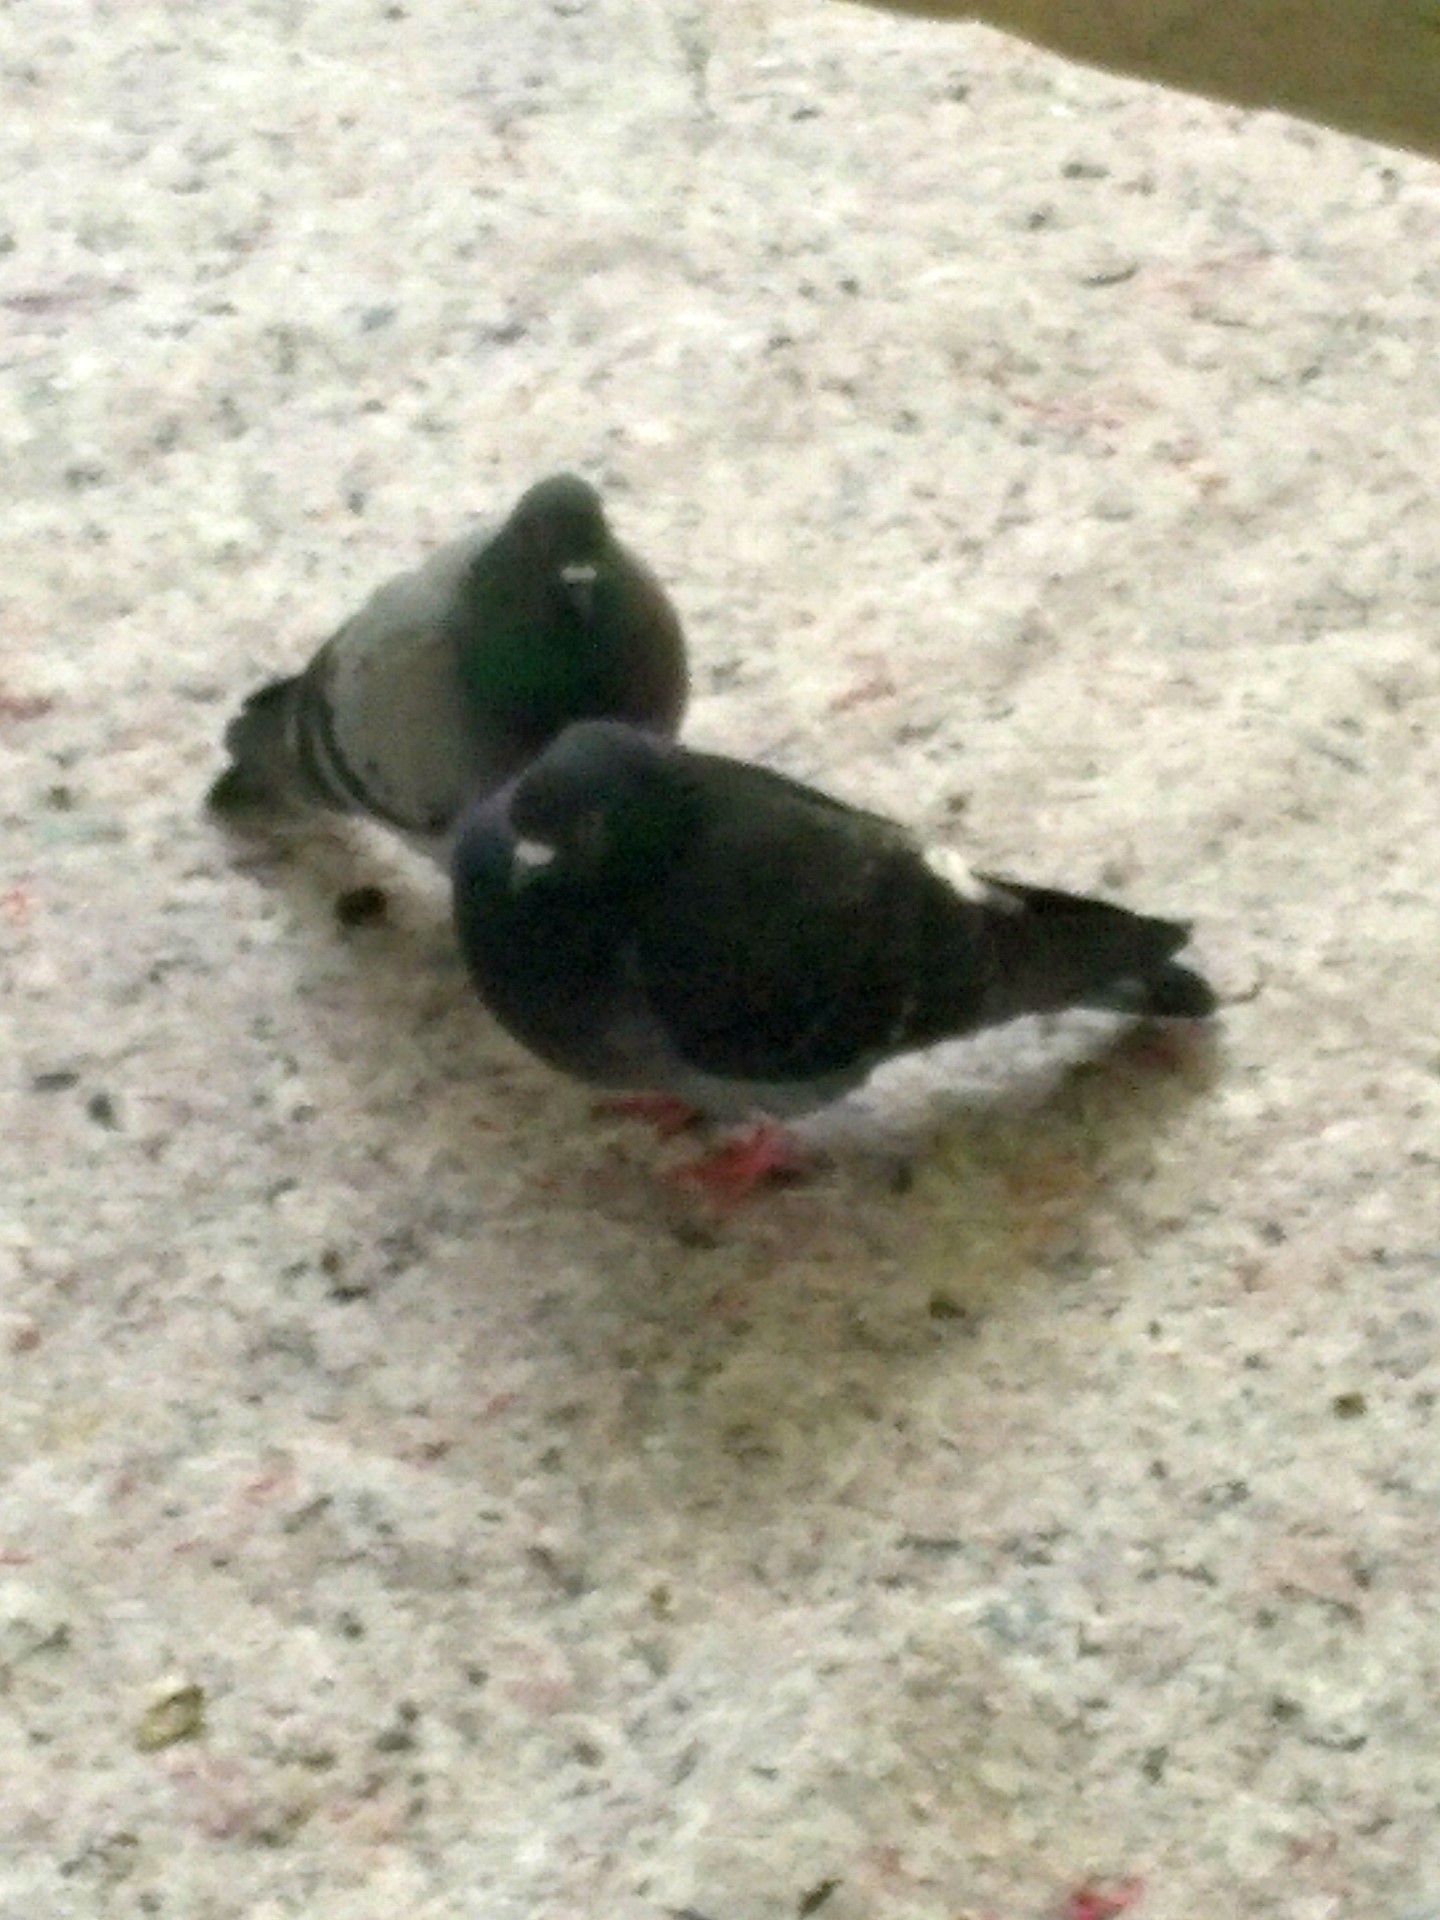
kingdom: Animalia
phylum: Chordata
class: Aves
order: Columbiformes
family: Columbidae
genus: Columba
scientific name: Columba livia
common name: Rock pigeon
